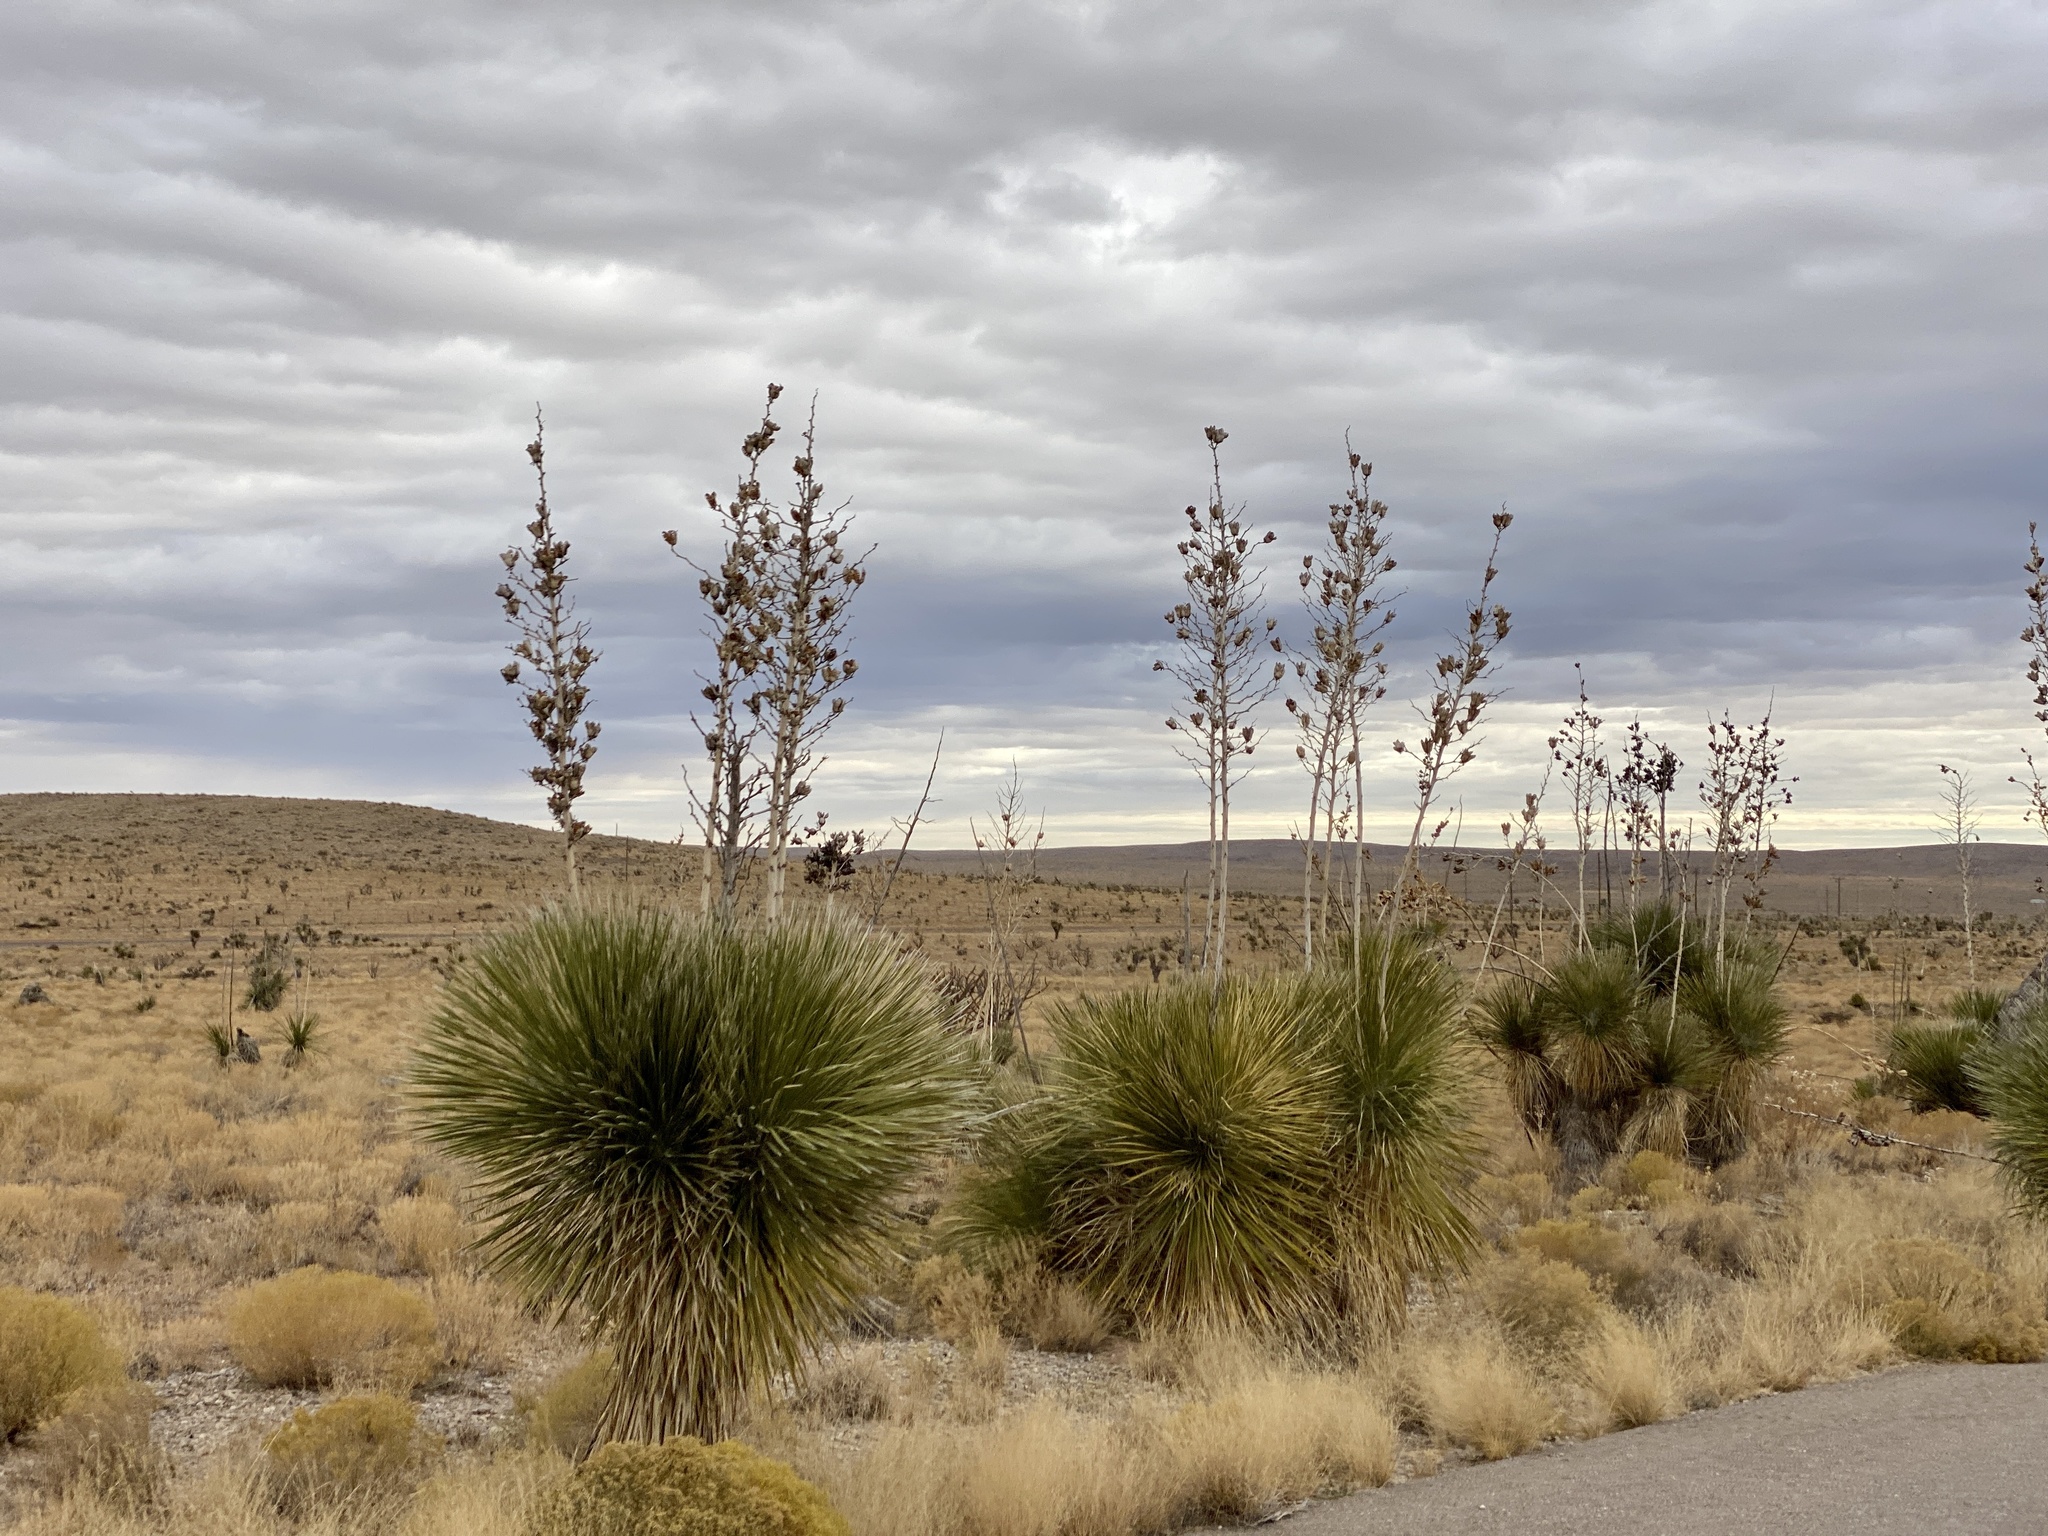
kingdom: Plantae
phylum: Tracheophyta
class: Liliopsida
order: Asparagales
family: Asparagaceae
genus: Yucca
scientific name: Yucca elata
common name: Palmella
